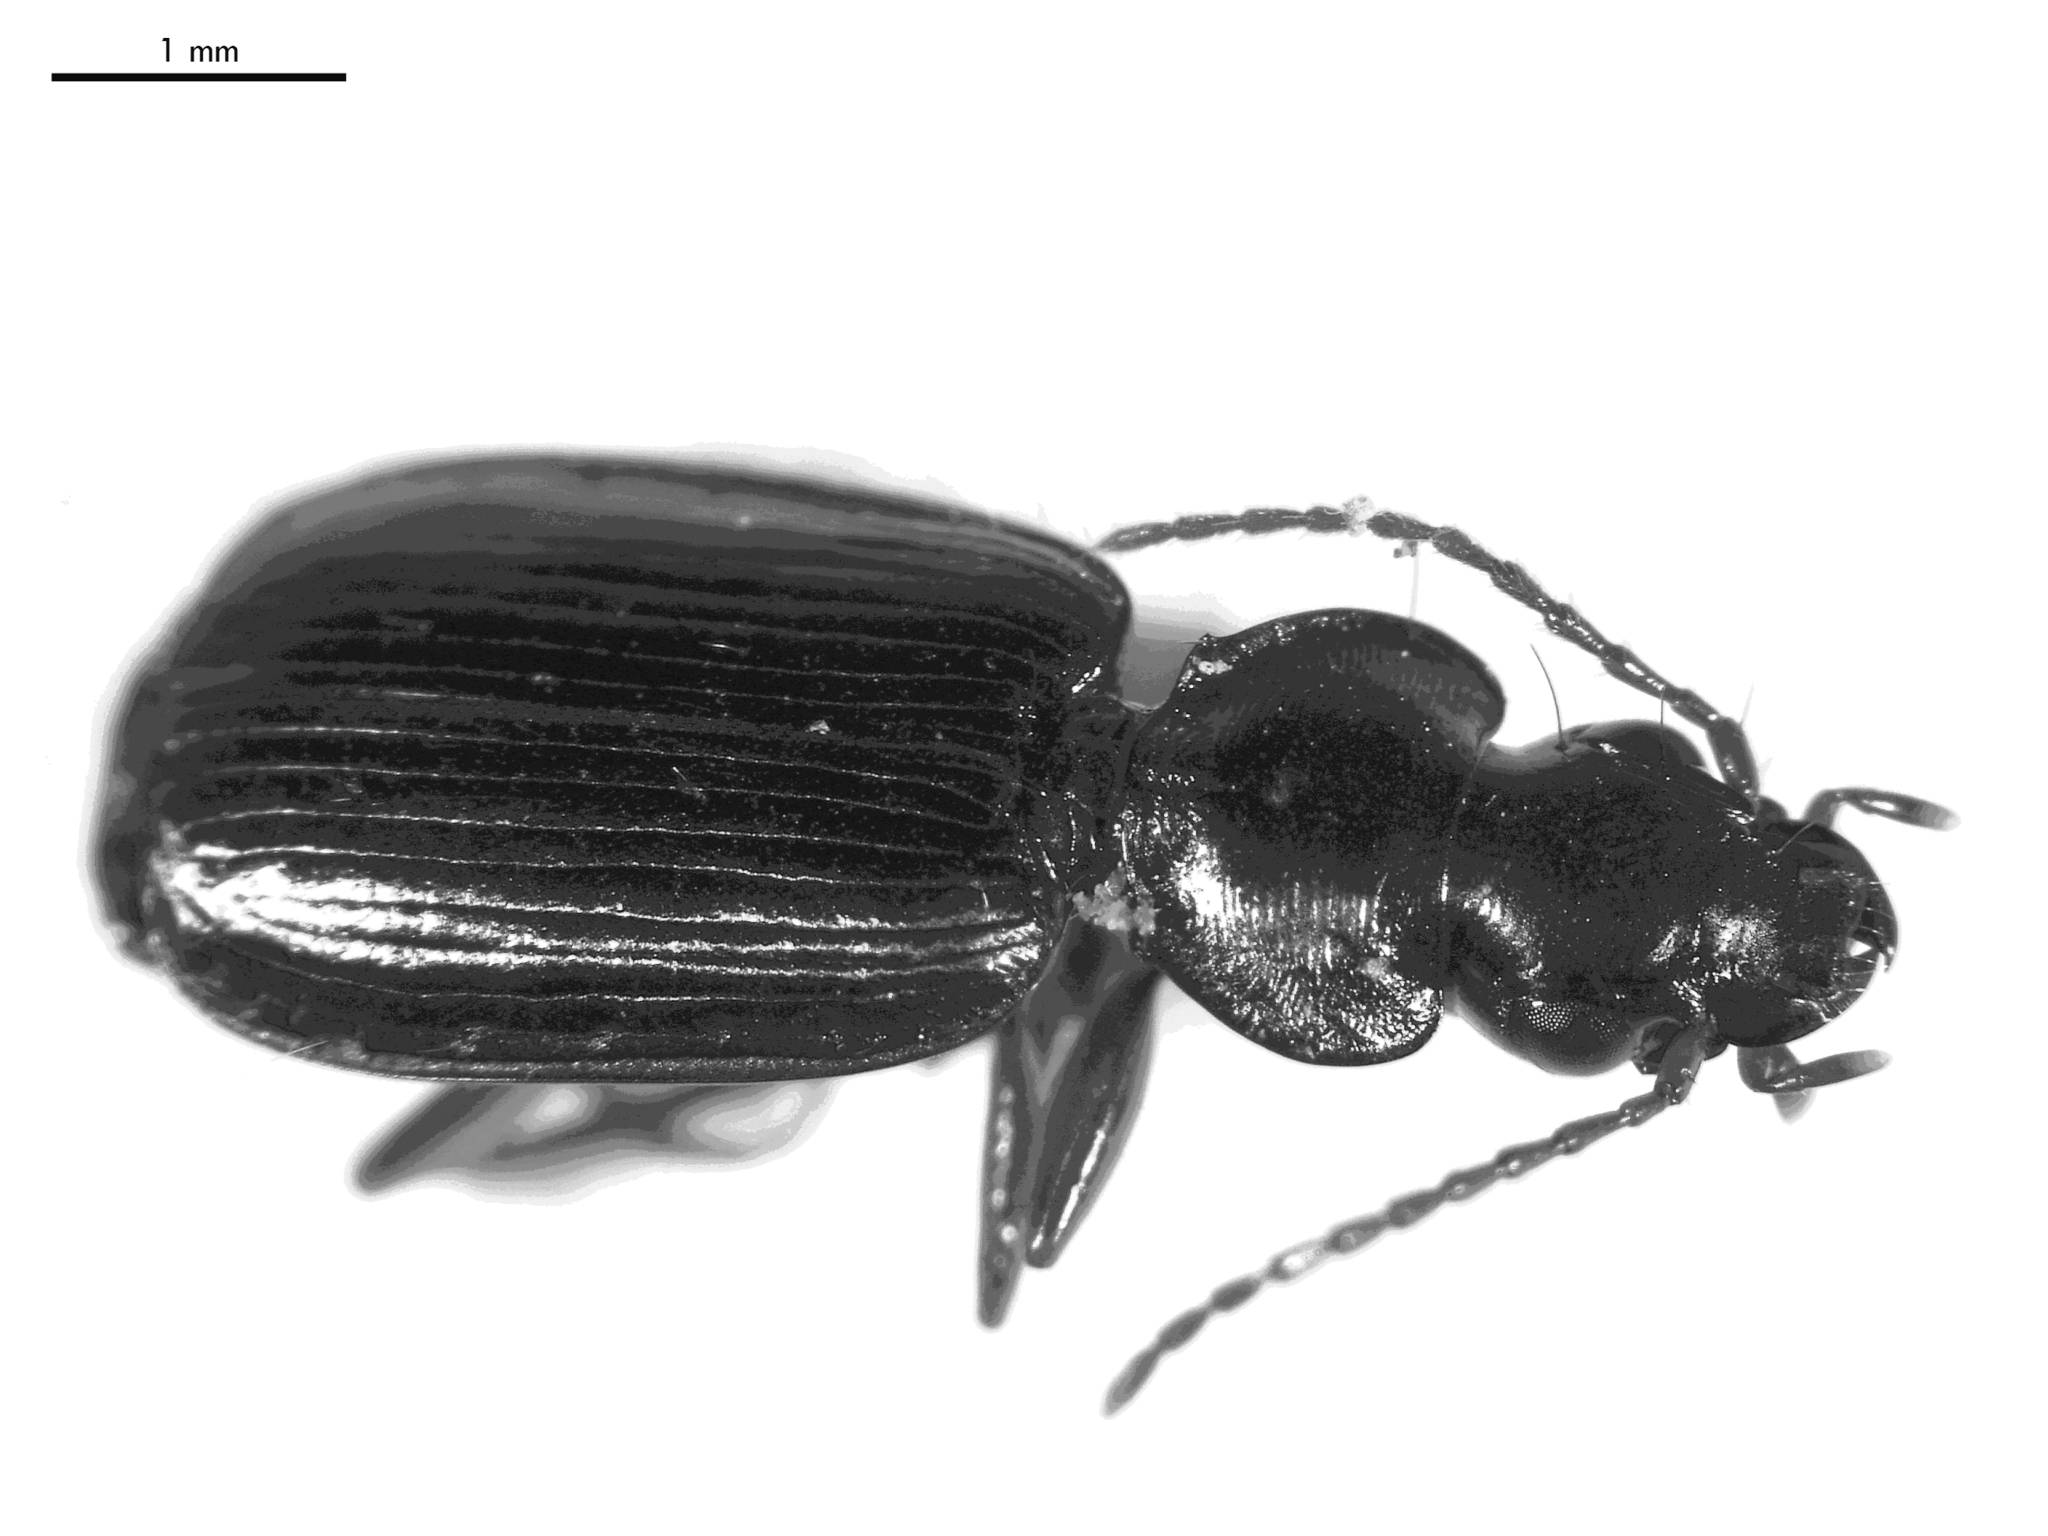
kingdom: Animalia
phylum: Arthropoda
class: Insecta
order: Coleoptera
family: Carabidae
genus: Anomotarus
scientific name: Anomotarus illawarrae
